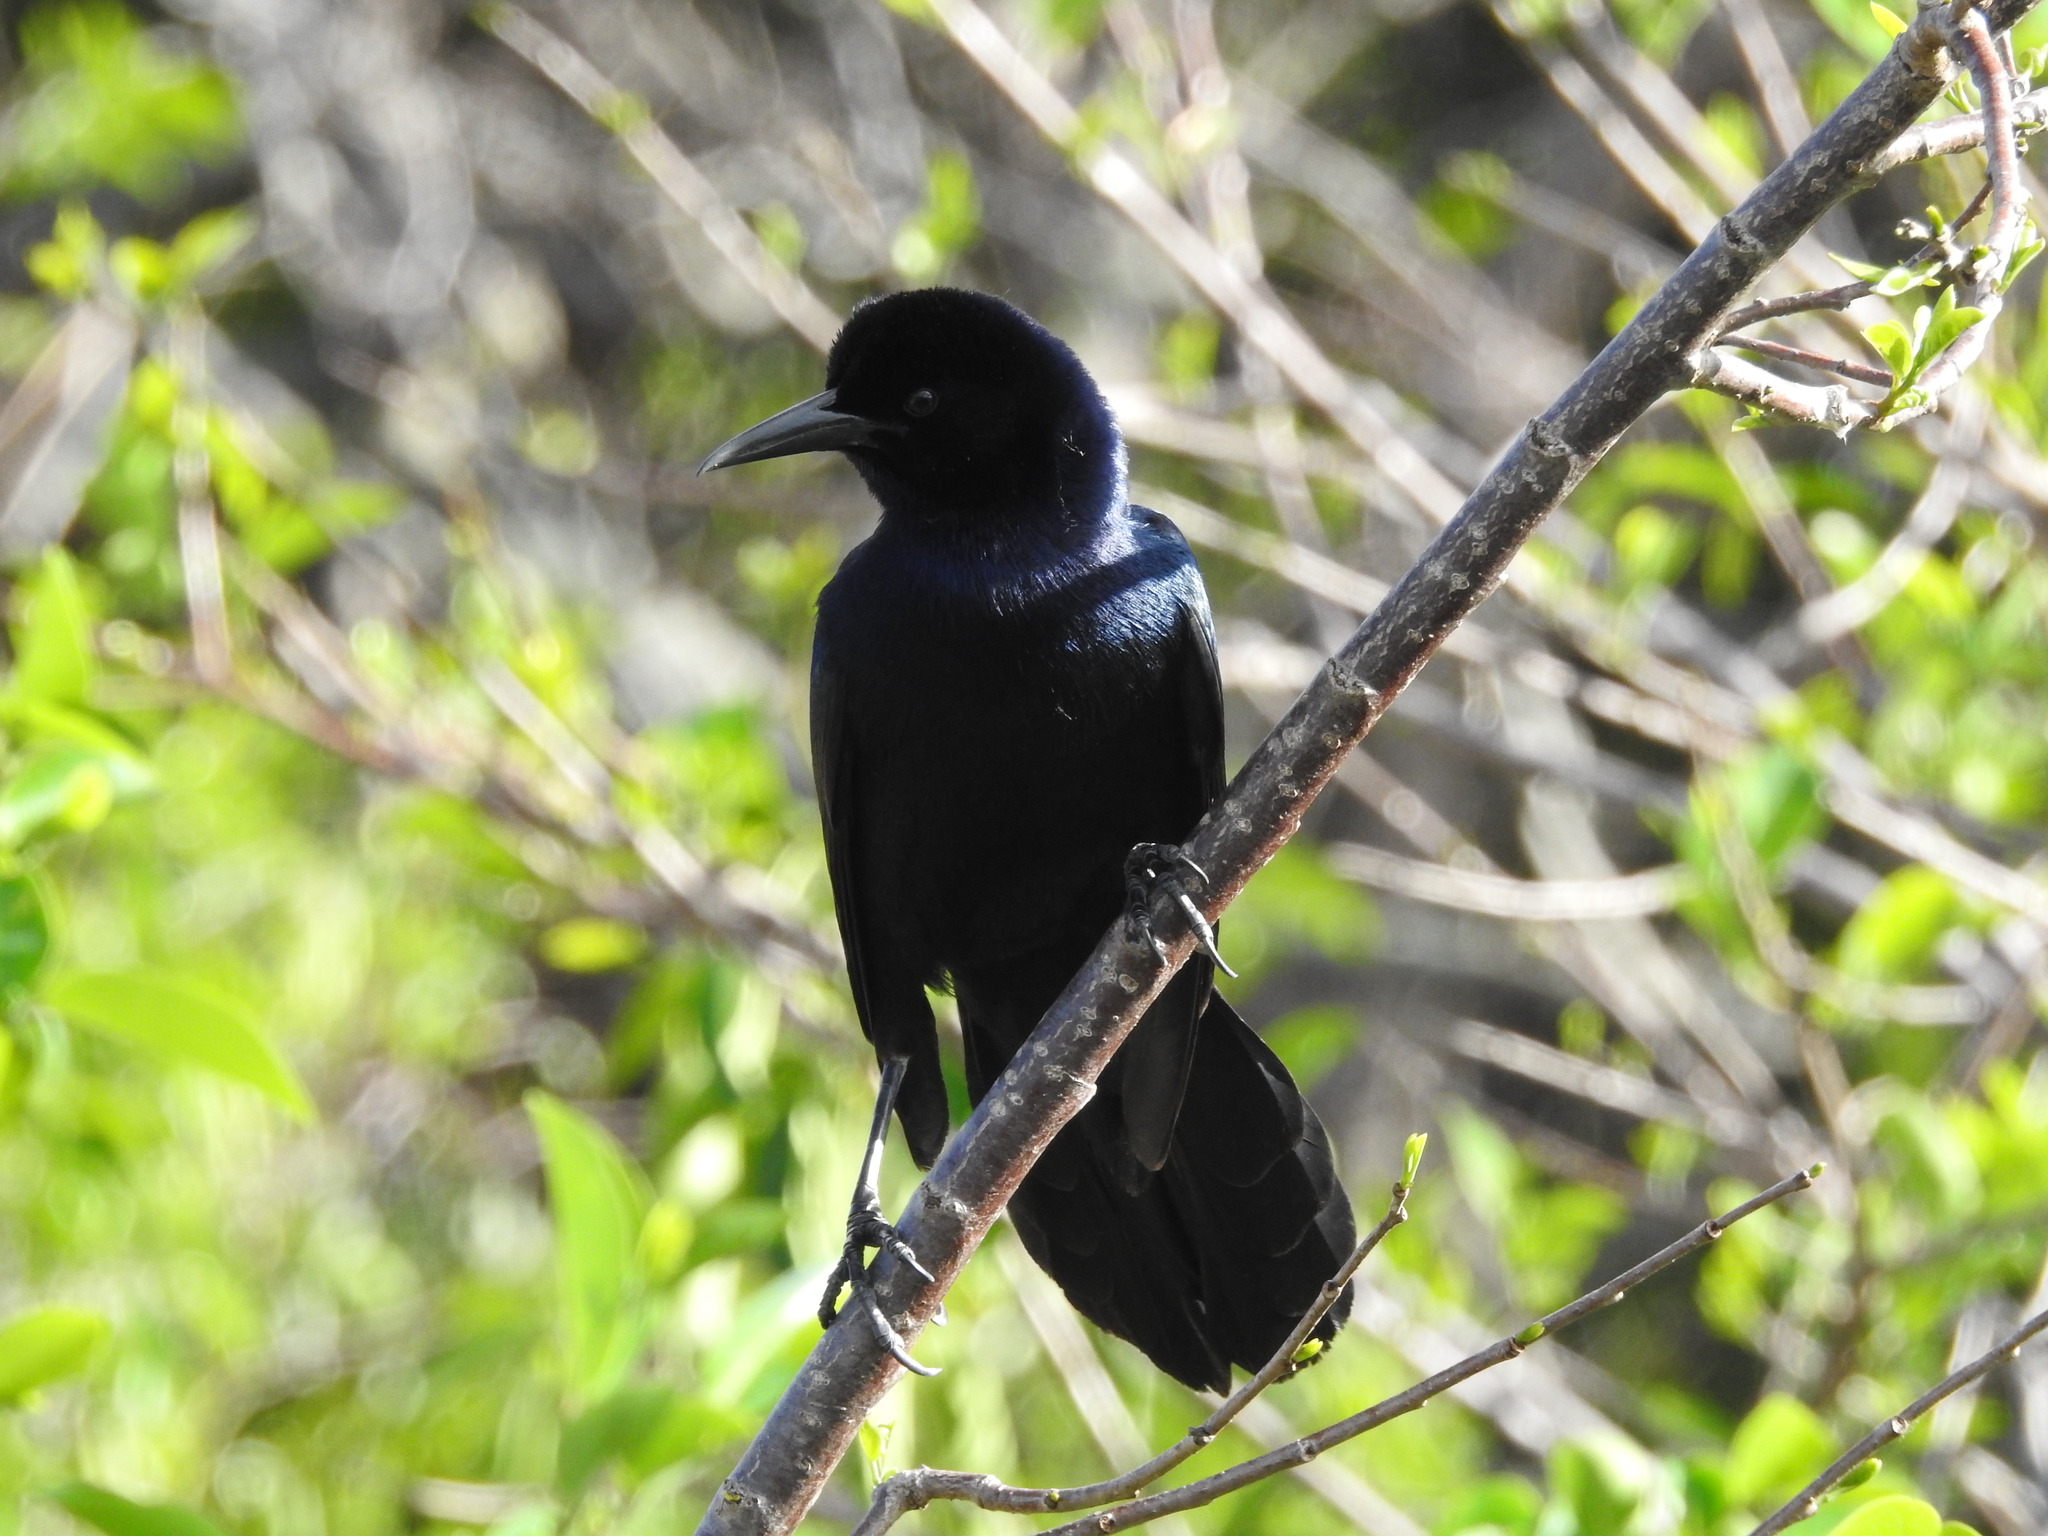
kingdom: Animalia
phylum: Chordata
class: Aves
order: Passeriformes
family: Icteridae
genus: Quiscalus
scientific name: Quiscalus major
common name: Boat-tailed grackle
